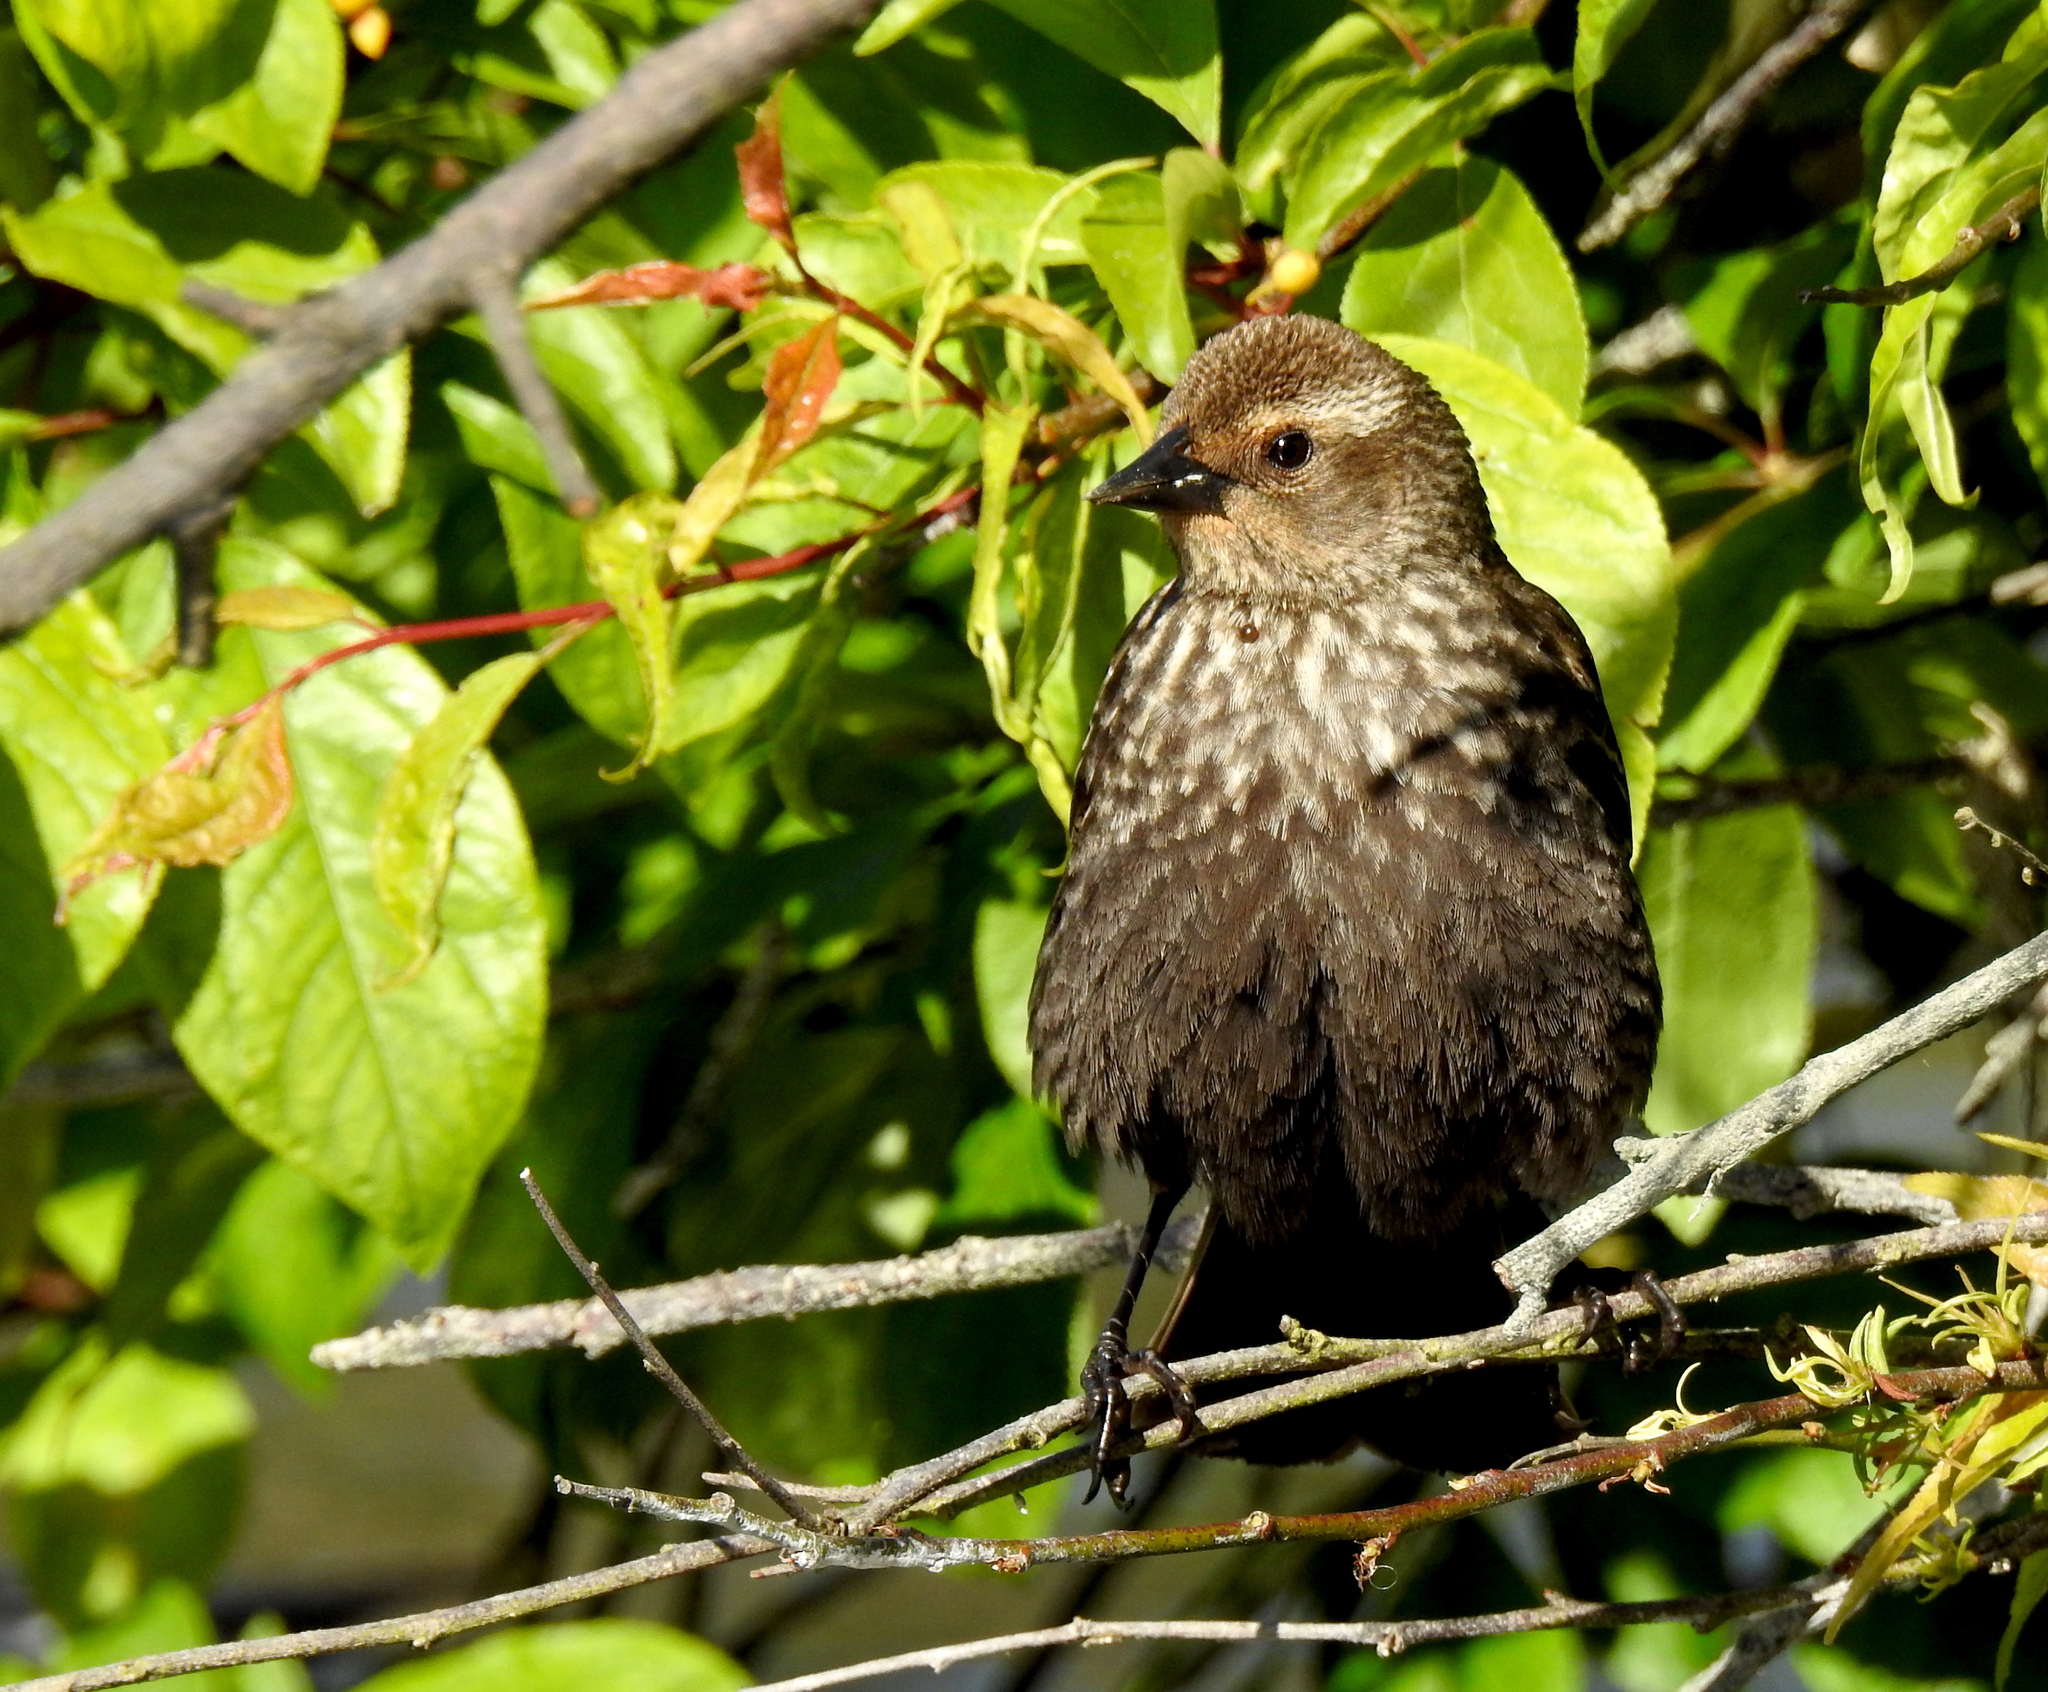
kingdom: Animalia
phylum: Chordata
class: Aves
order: Passeriformes
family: Icteridae
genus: Agelaius
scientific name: Agelaius phoeniceus
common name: Red-winged blackbird
